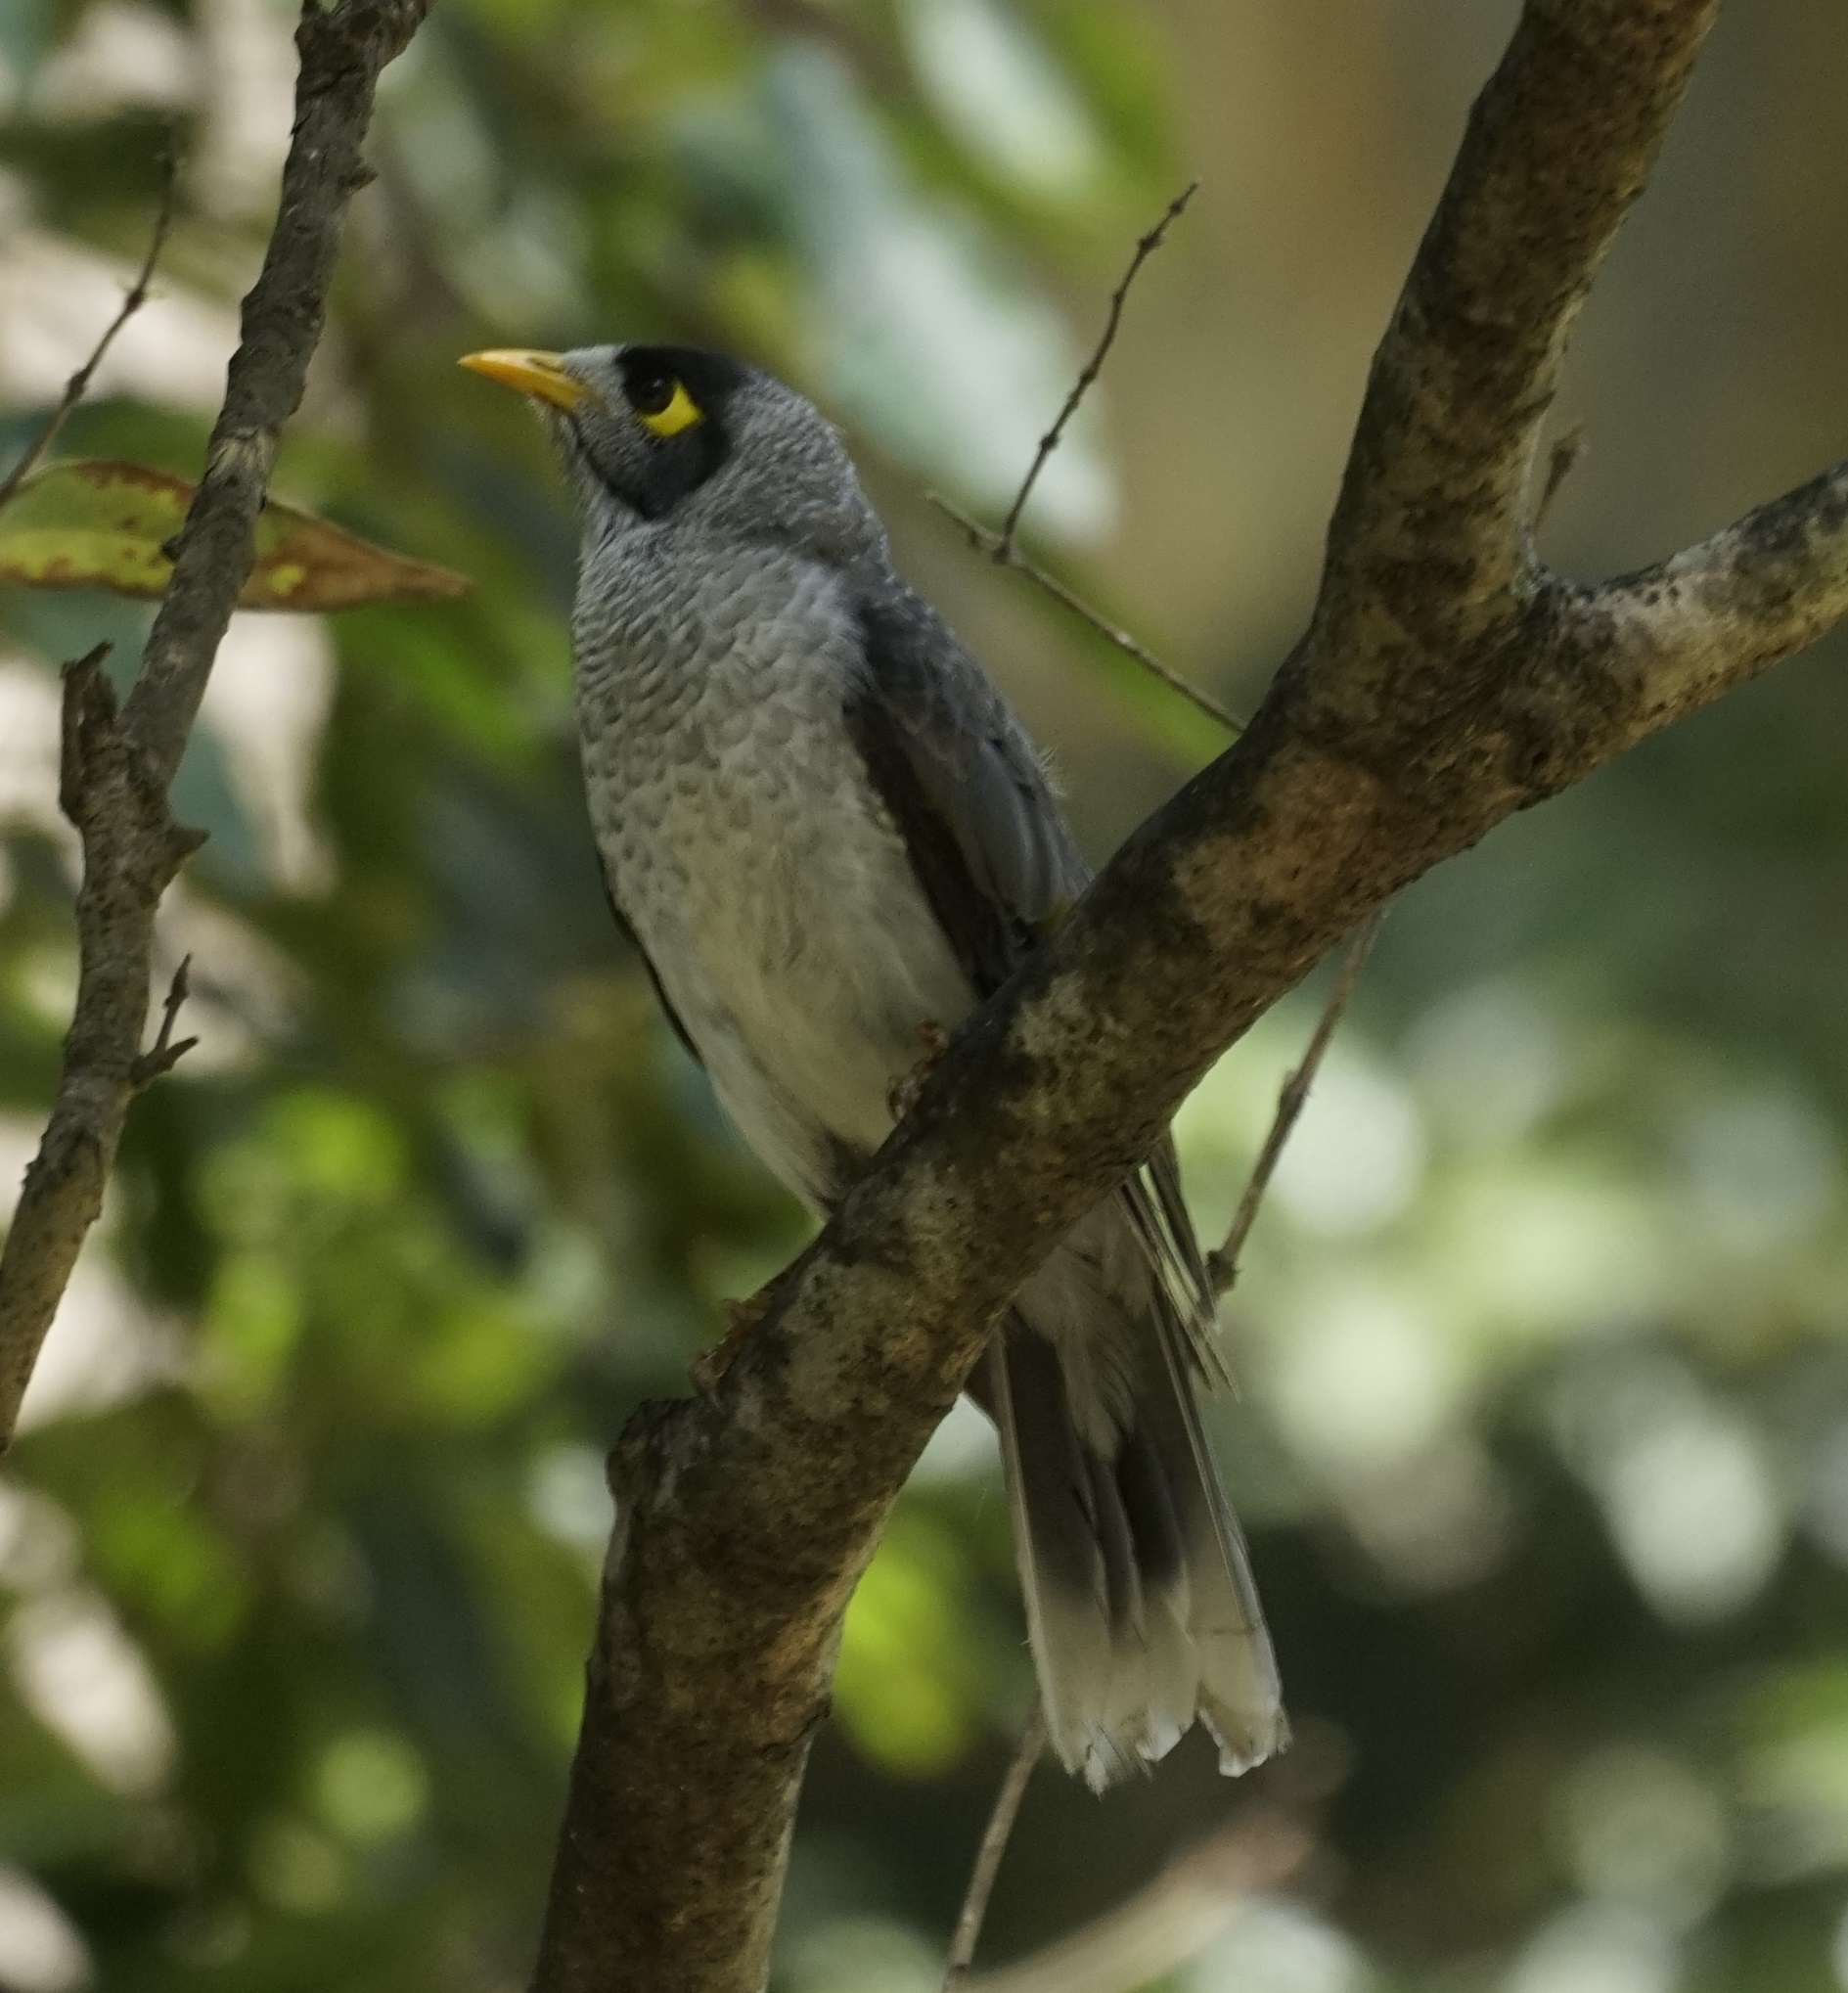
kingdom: Animalia
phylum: Chordata
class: Aves
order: Passeriformes
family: Meliphagidae
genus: Manorina
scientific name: Manorina melanocephala
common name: Noisy miner
